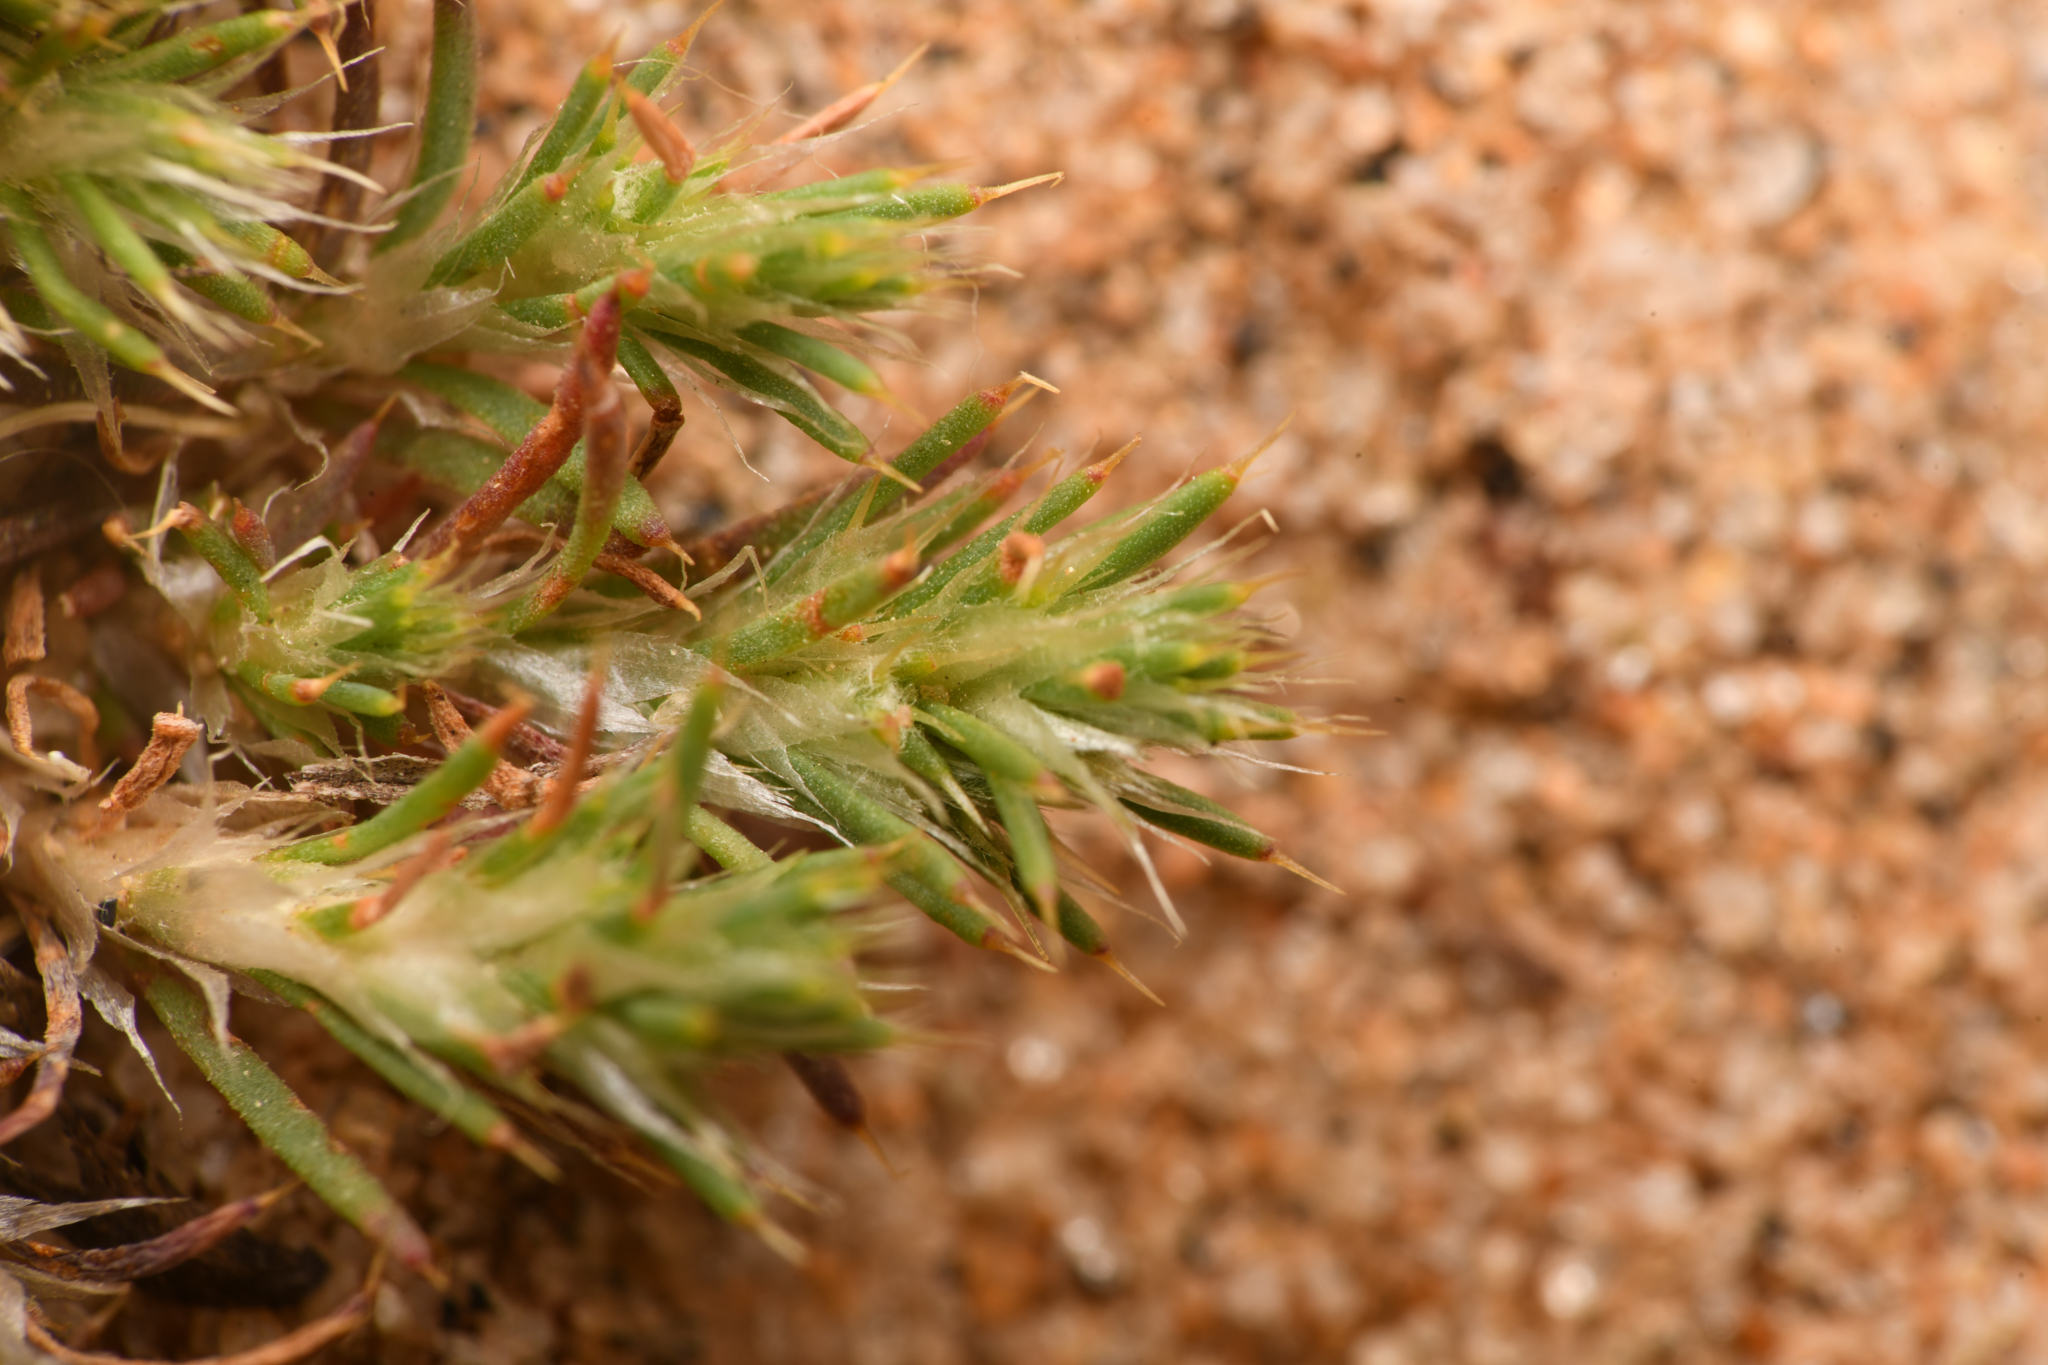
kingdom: Plantae
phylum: Tracheophyta
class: Magnoliopsida
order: Caryophyllales
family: Caryophyllaceae
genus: Cardionema
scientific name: Cardionema ramosissima
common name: Sandcarpet
